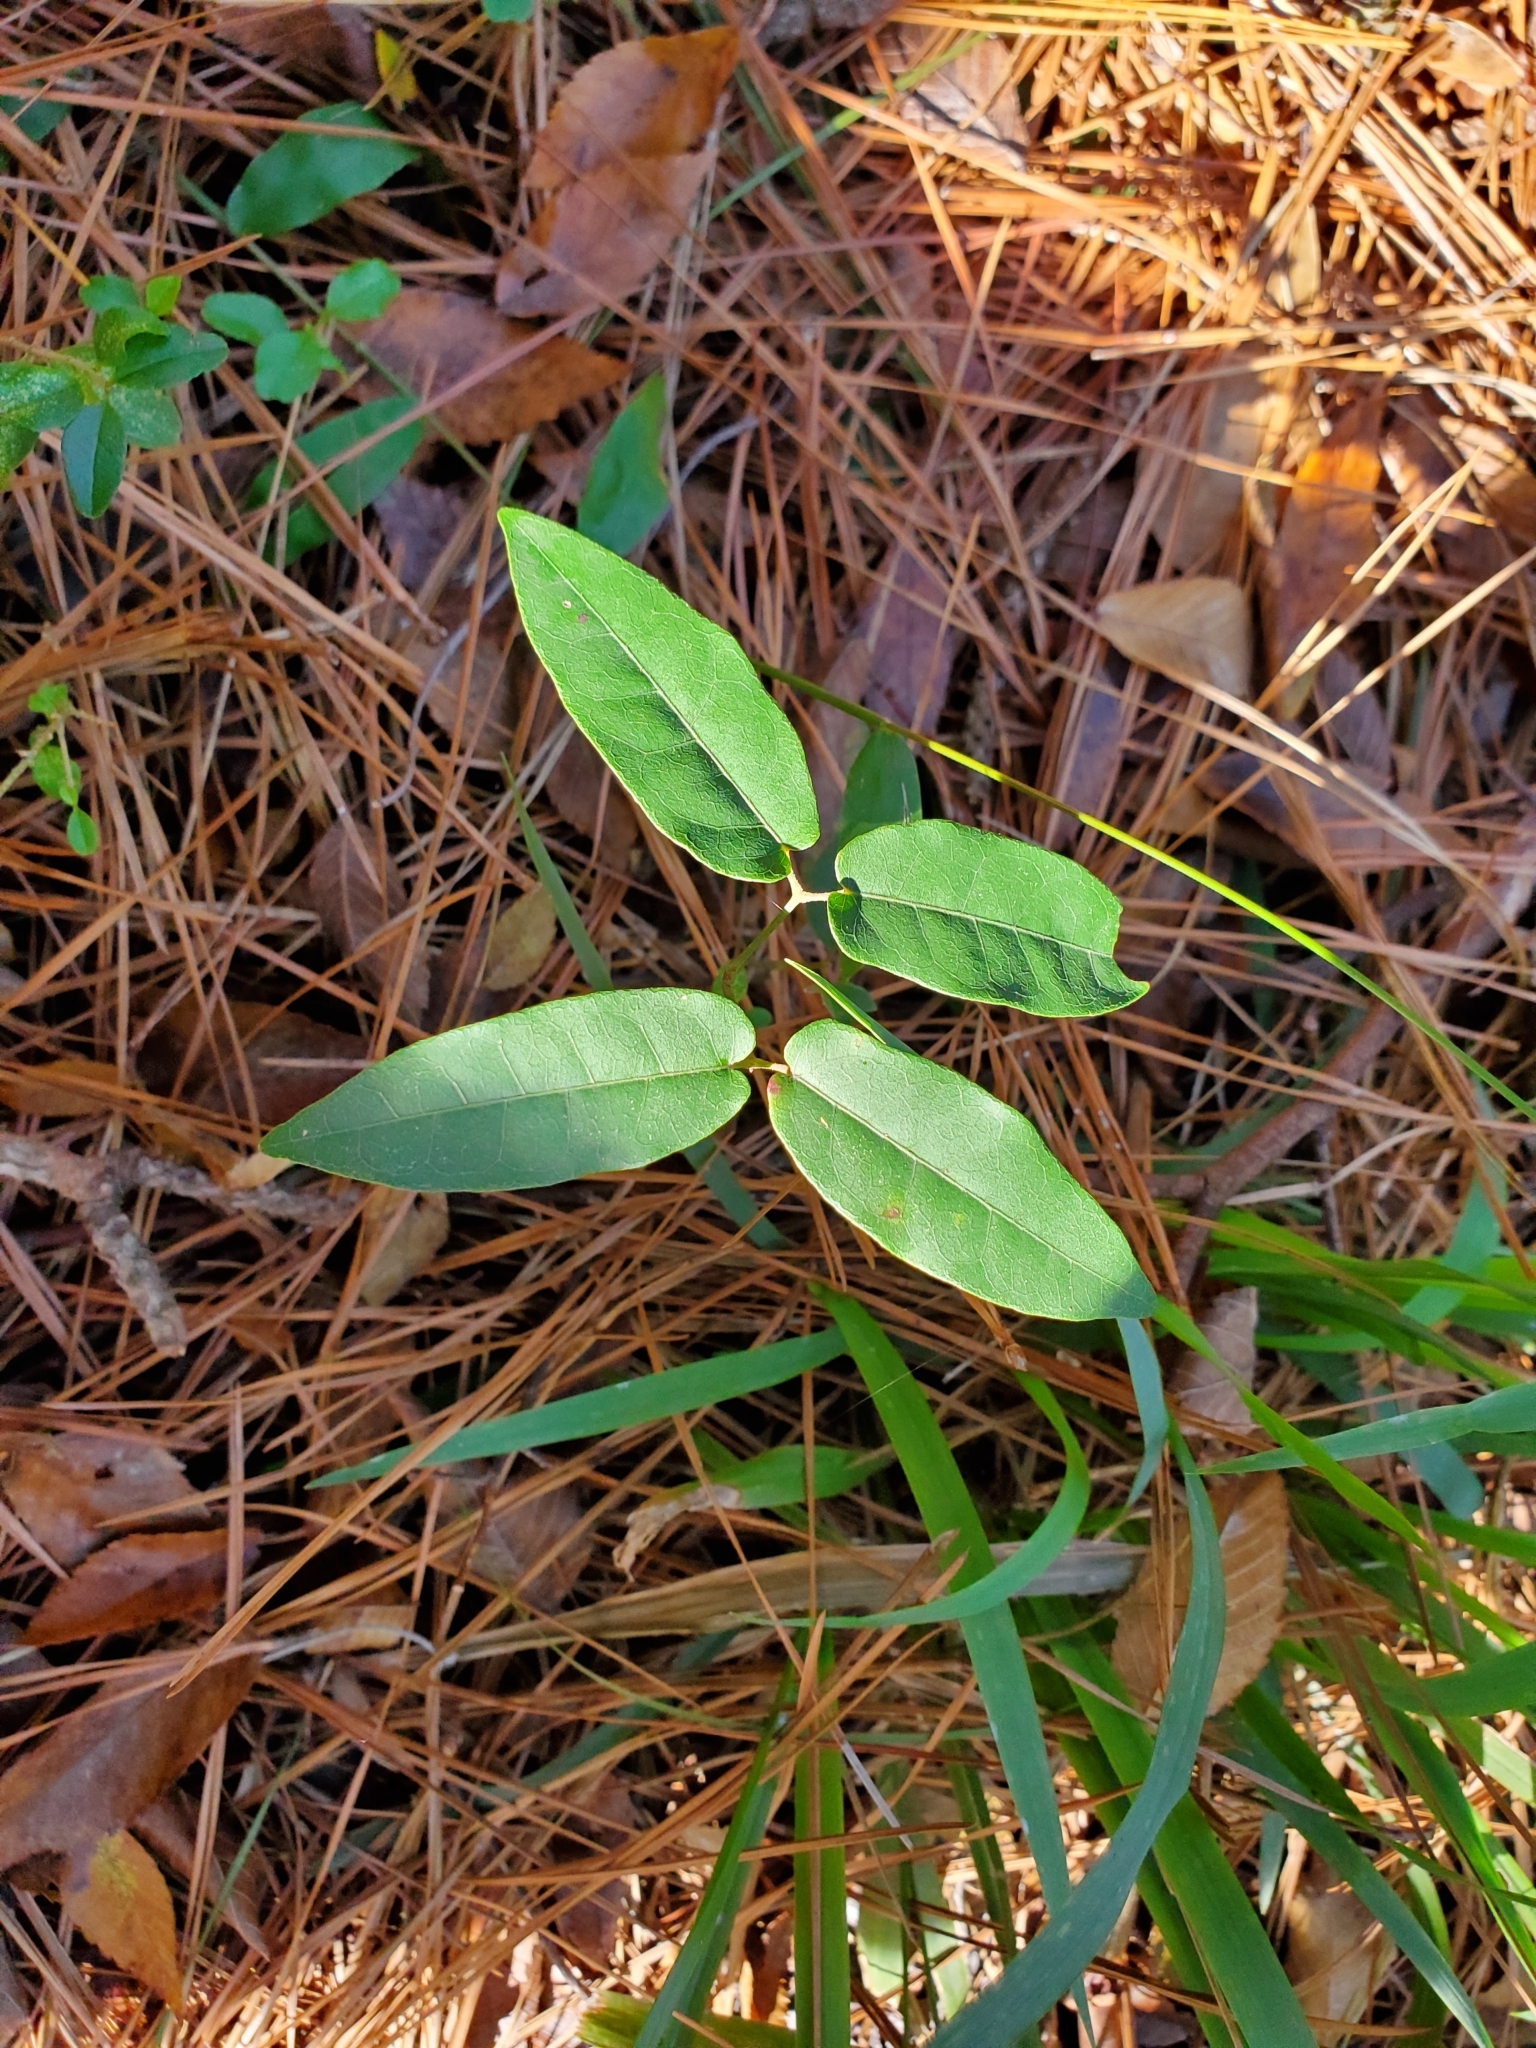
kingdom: Plantae
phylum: Tracheophyta
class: Magnoliopsida
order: Lamiales
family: Bignoniaceae
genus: Bignonia
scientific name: Bignonia capreolata
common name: Crossvine
